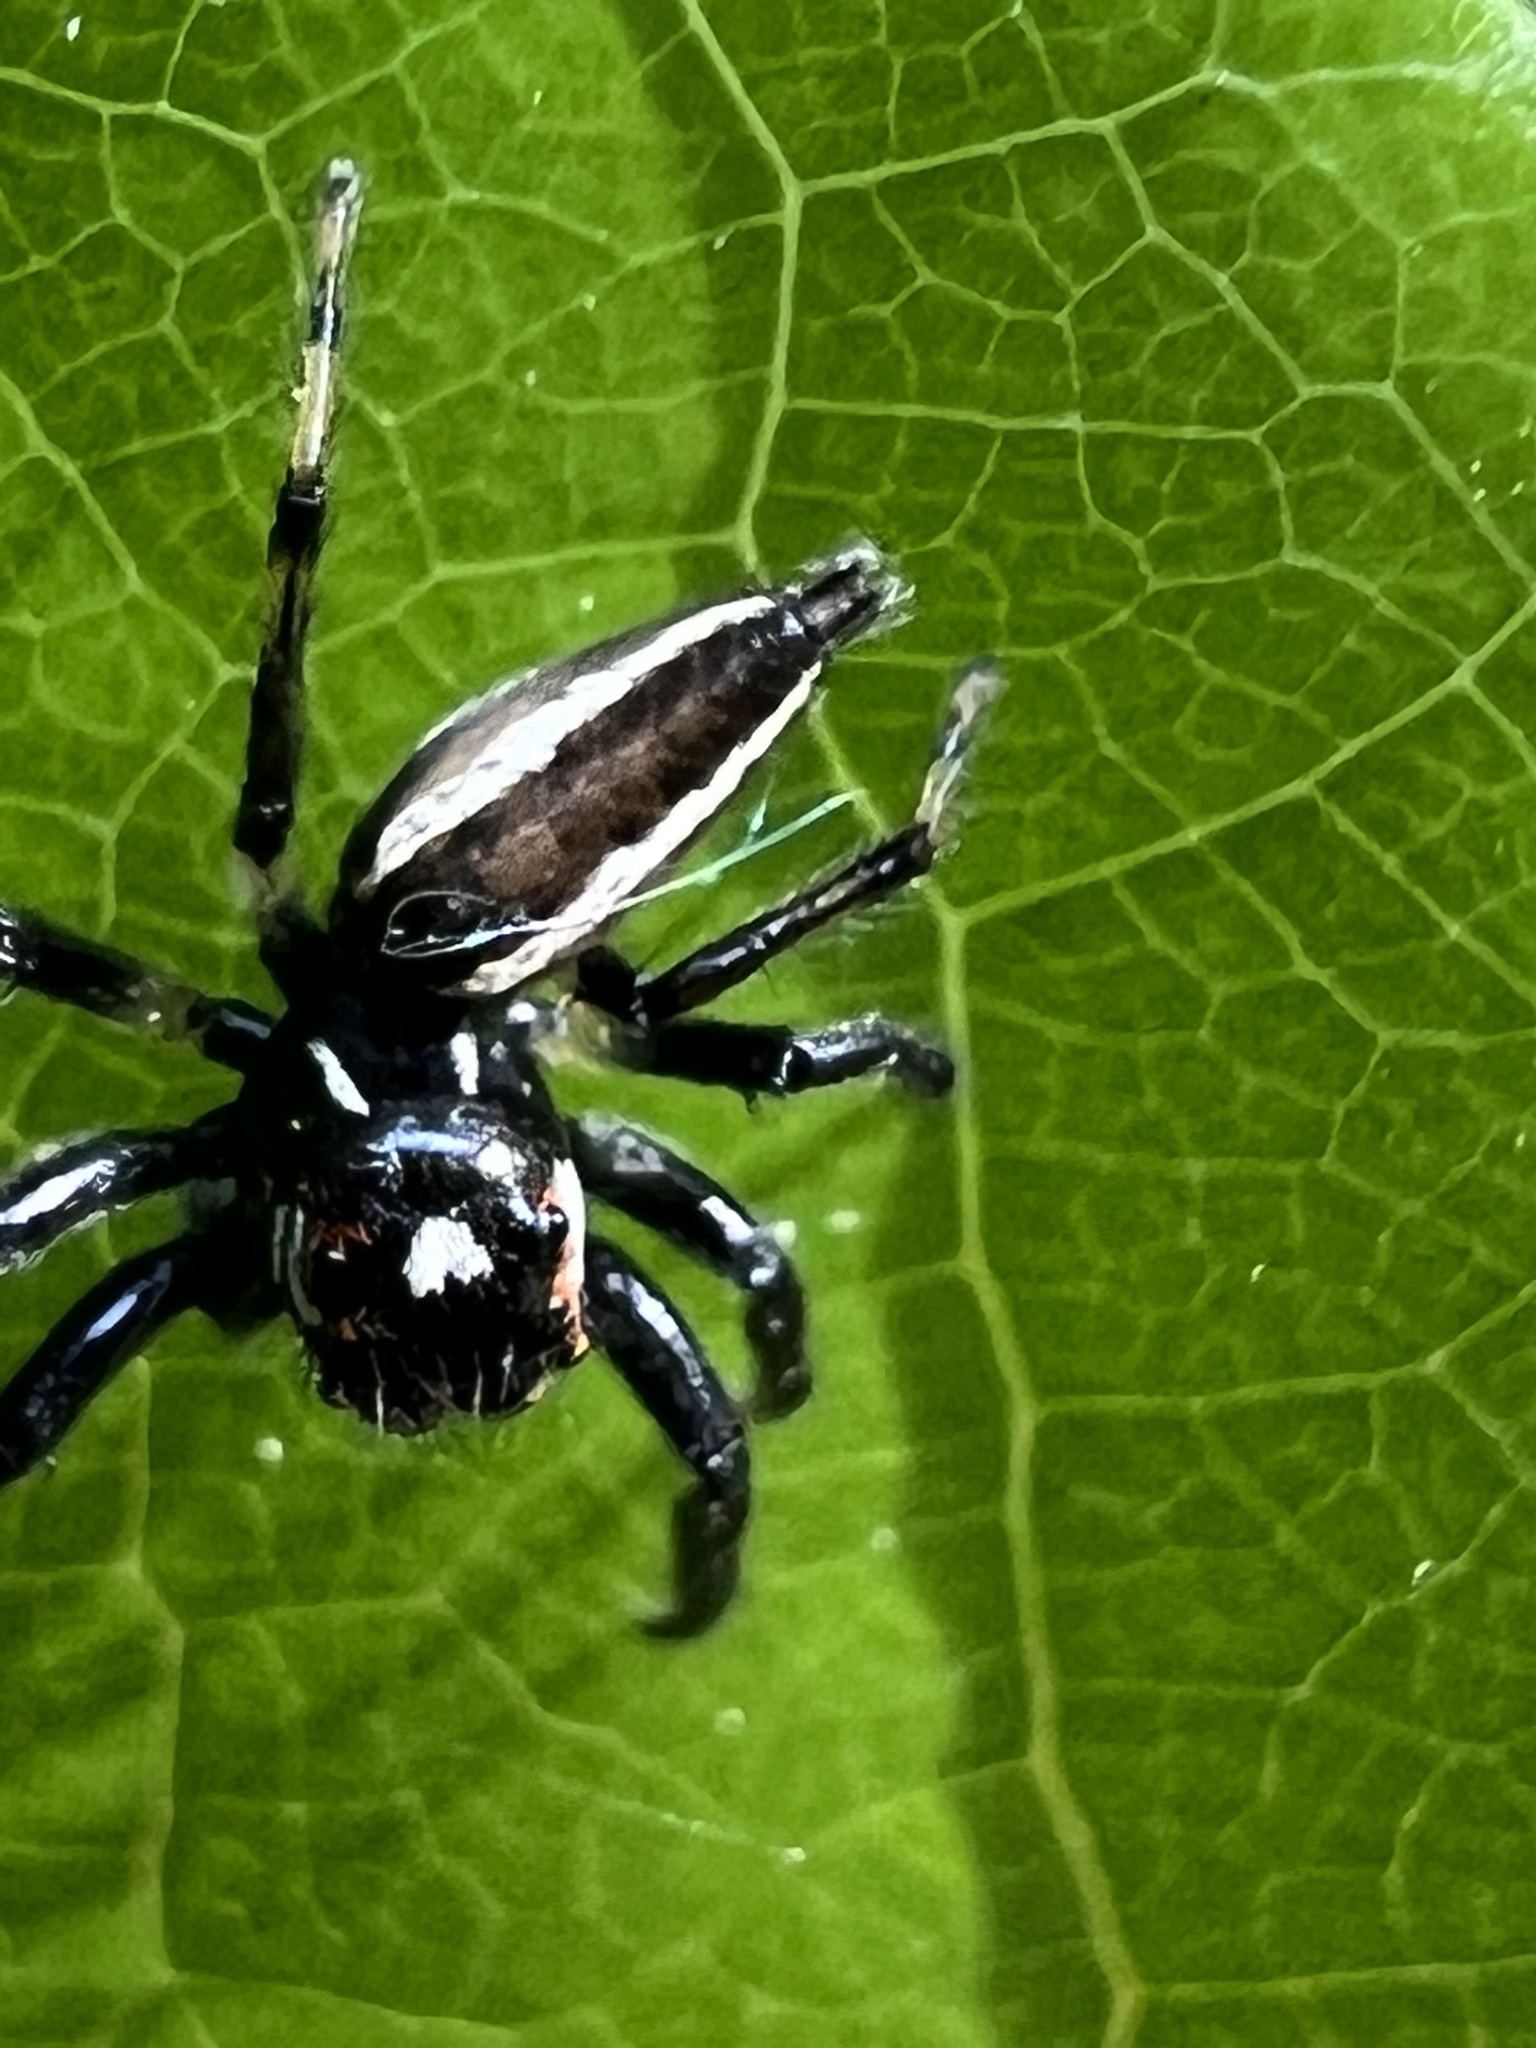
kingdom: Animalia
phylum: Arthropoda
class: Arachnida
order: Araneae
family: Salticidae
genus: Colonus
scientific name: Colonus sylvanus
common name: Jumping spiders
